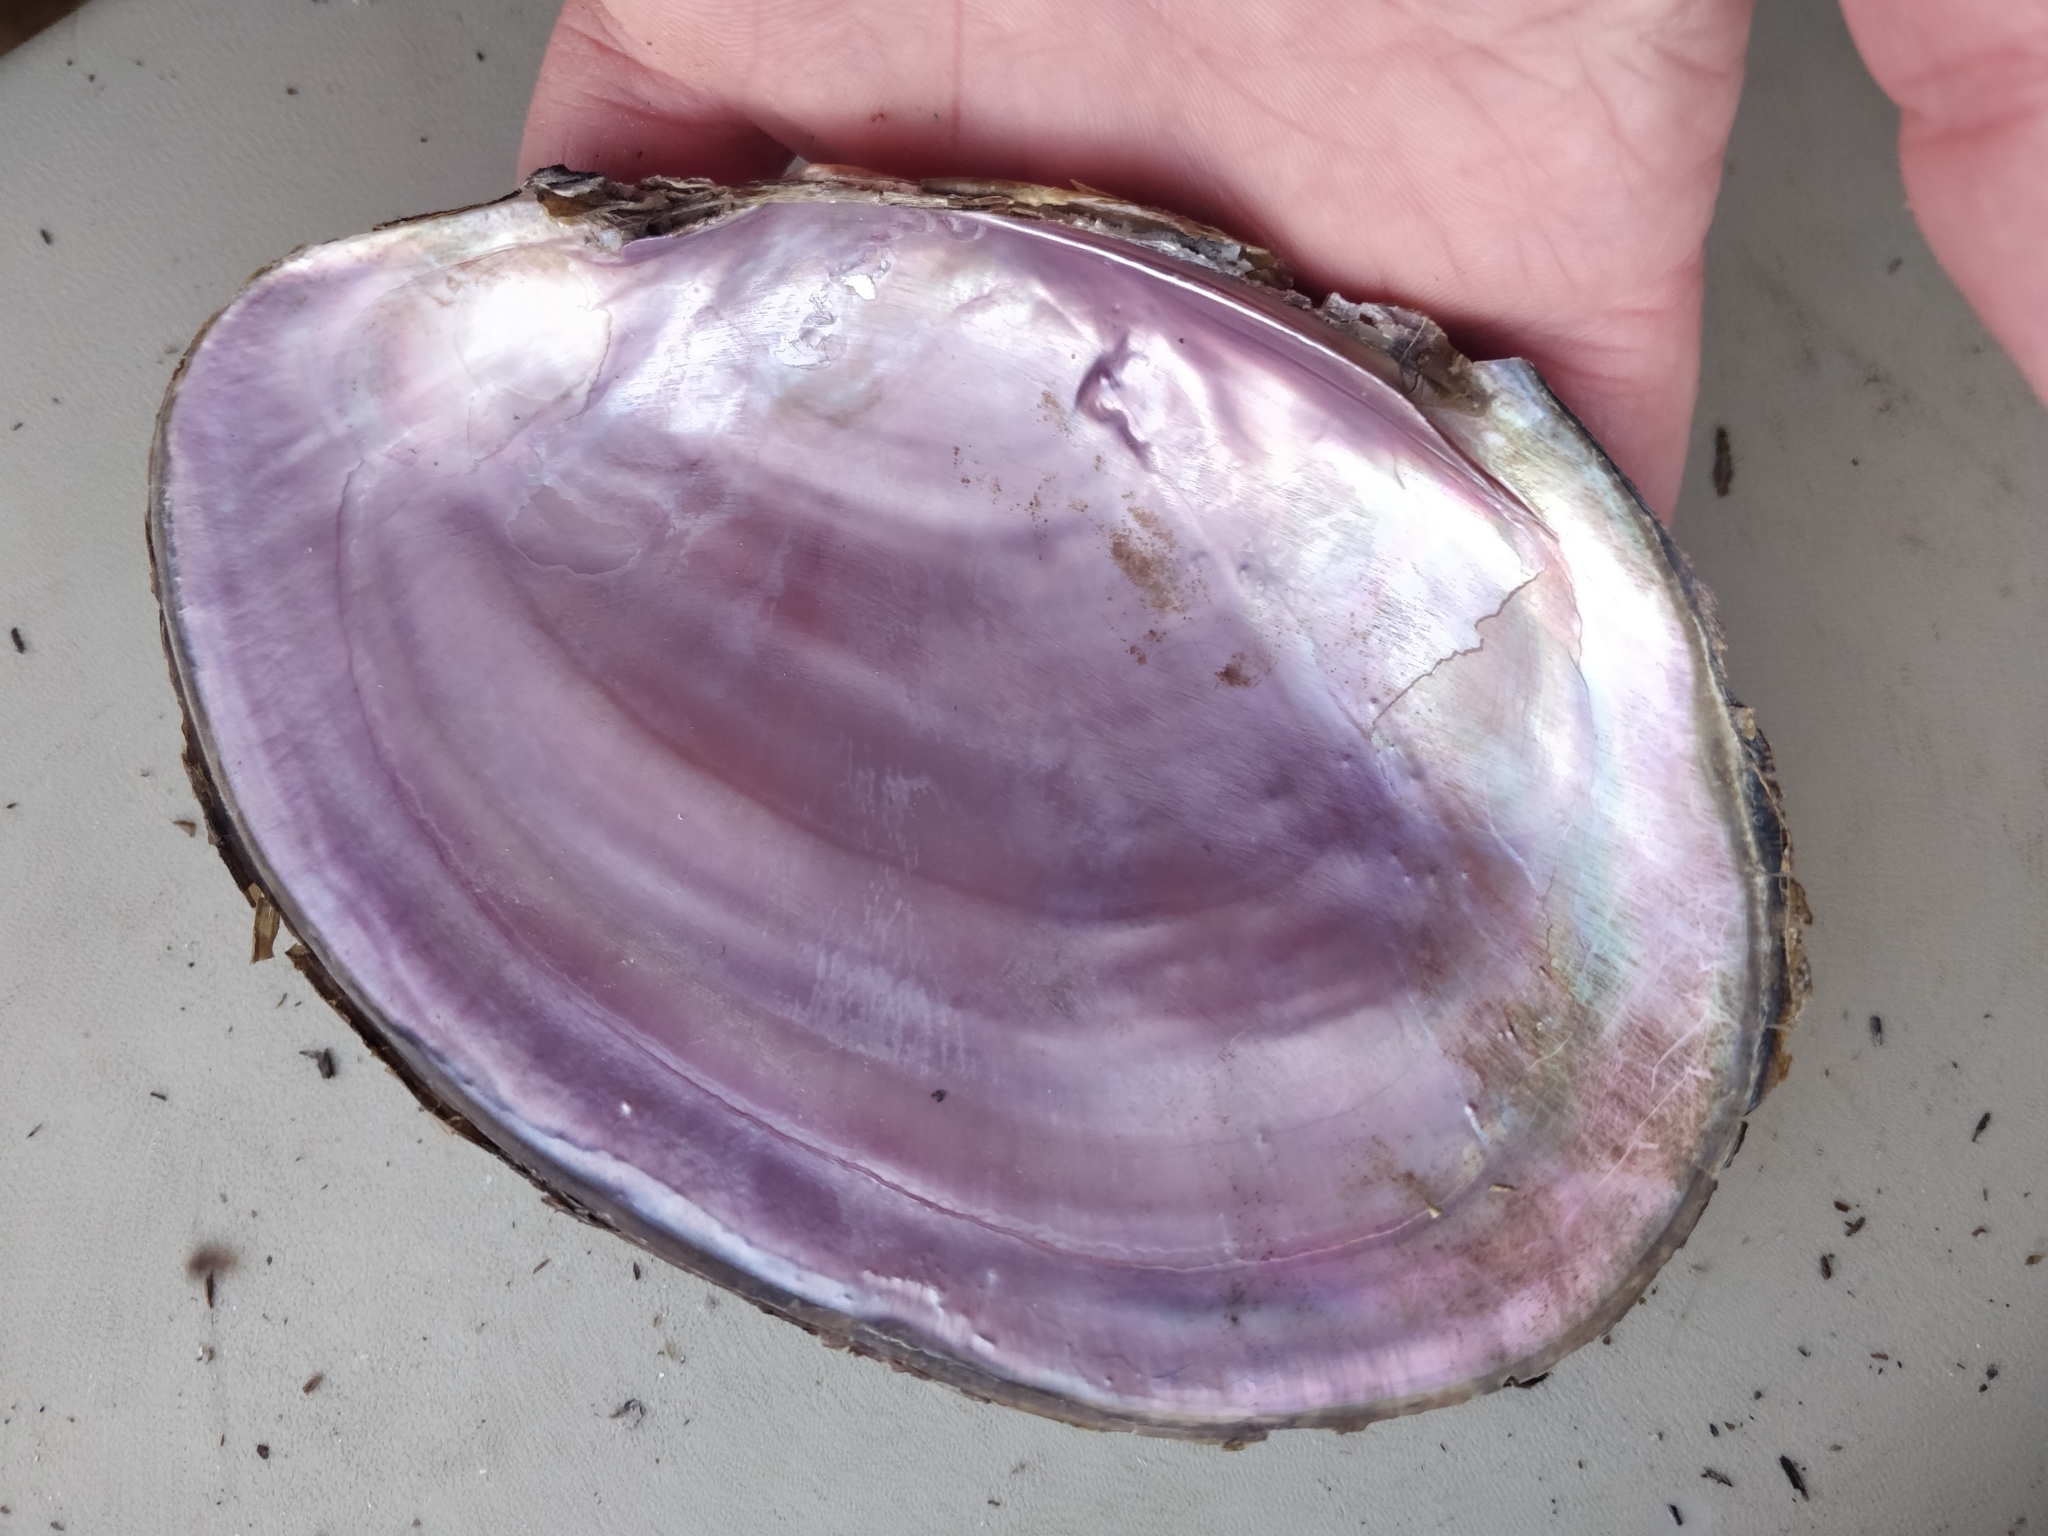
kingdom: Animalia
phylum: Mollusca
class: Bivalvia
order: Unionida
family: Unionidae
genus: Potamilus
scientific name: Potamilus ohiensis
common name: Pink papershell
